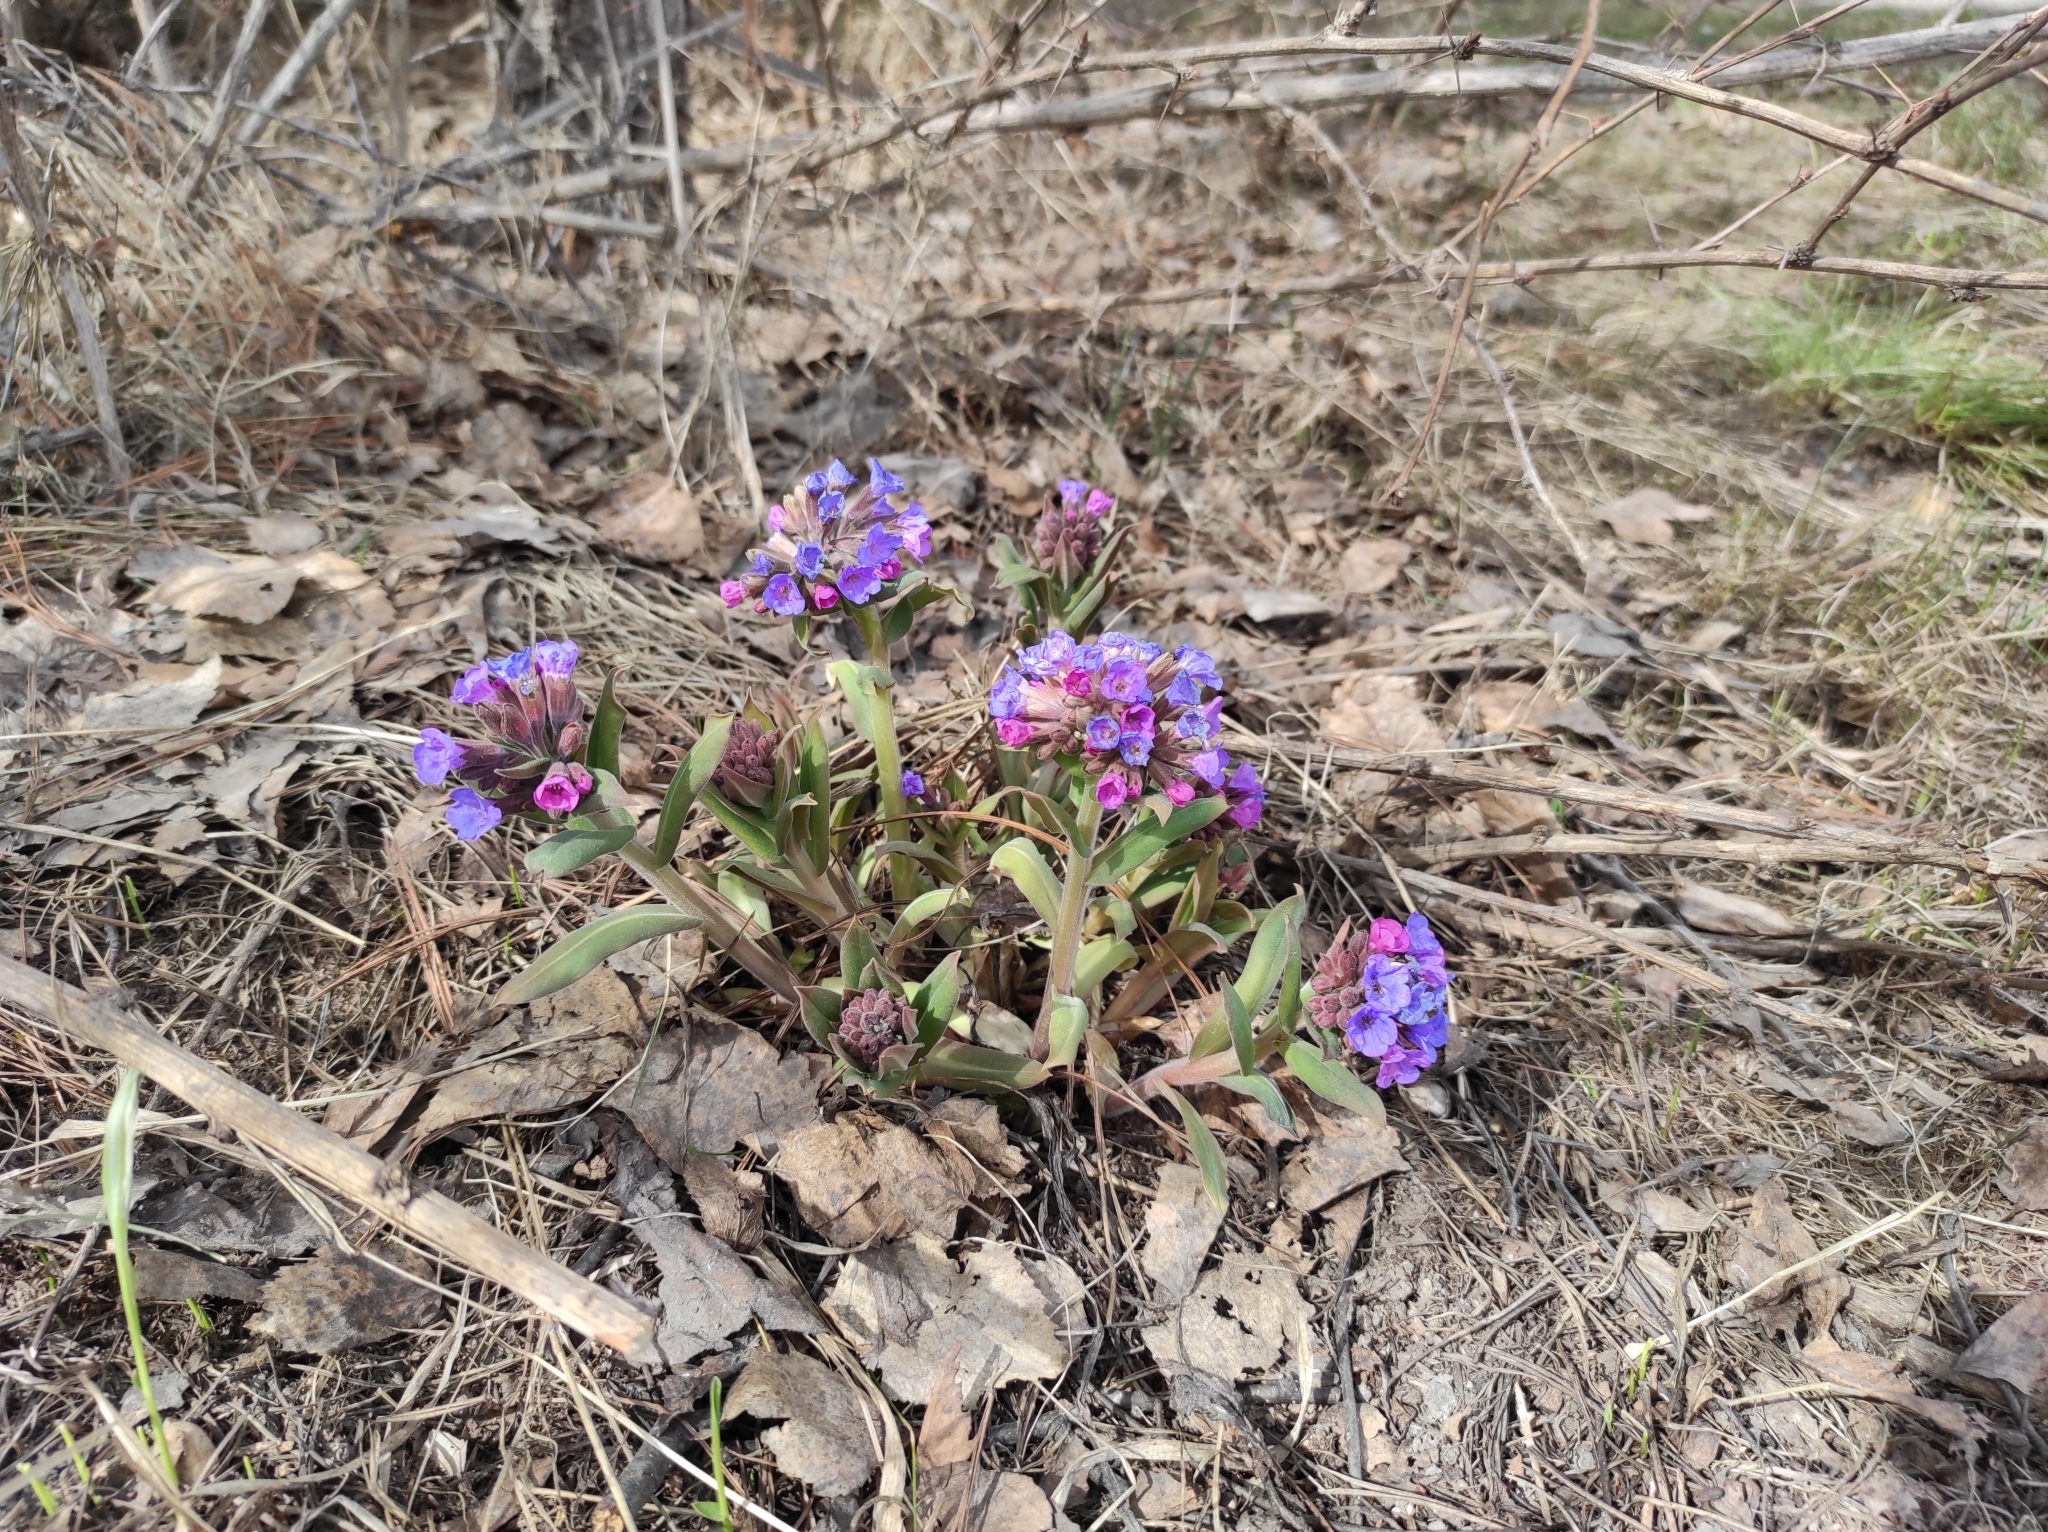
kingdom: Plantae
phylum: Tracheophyta
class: Magnoliopsida
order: Boraginales
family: Boraginaceae
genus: Pulmonaria
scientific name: Pulmonaria mollis
